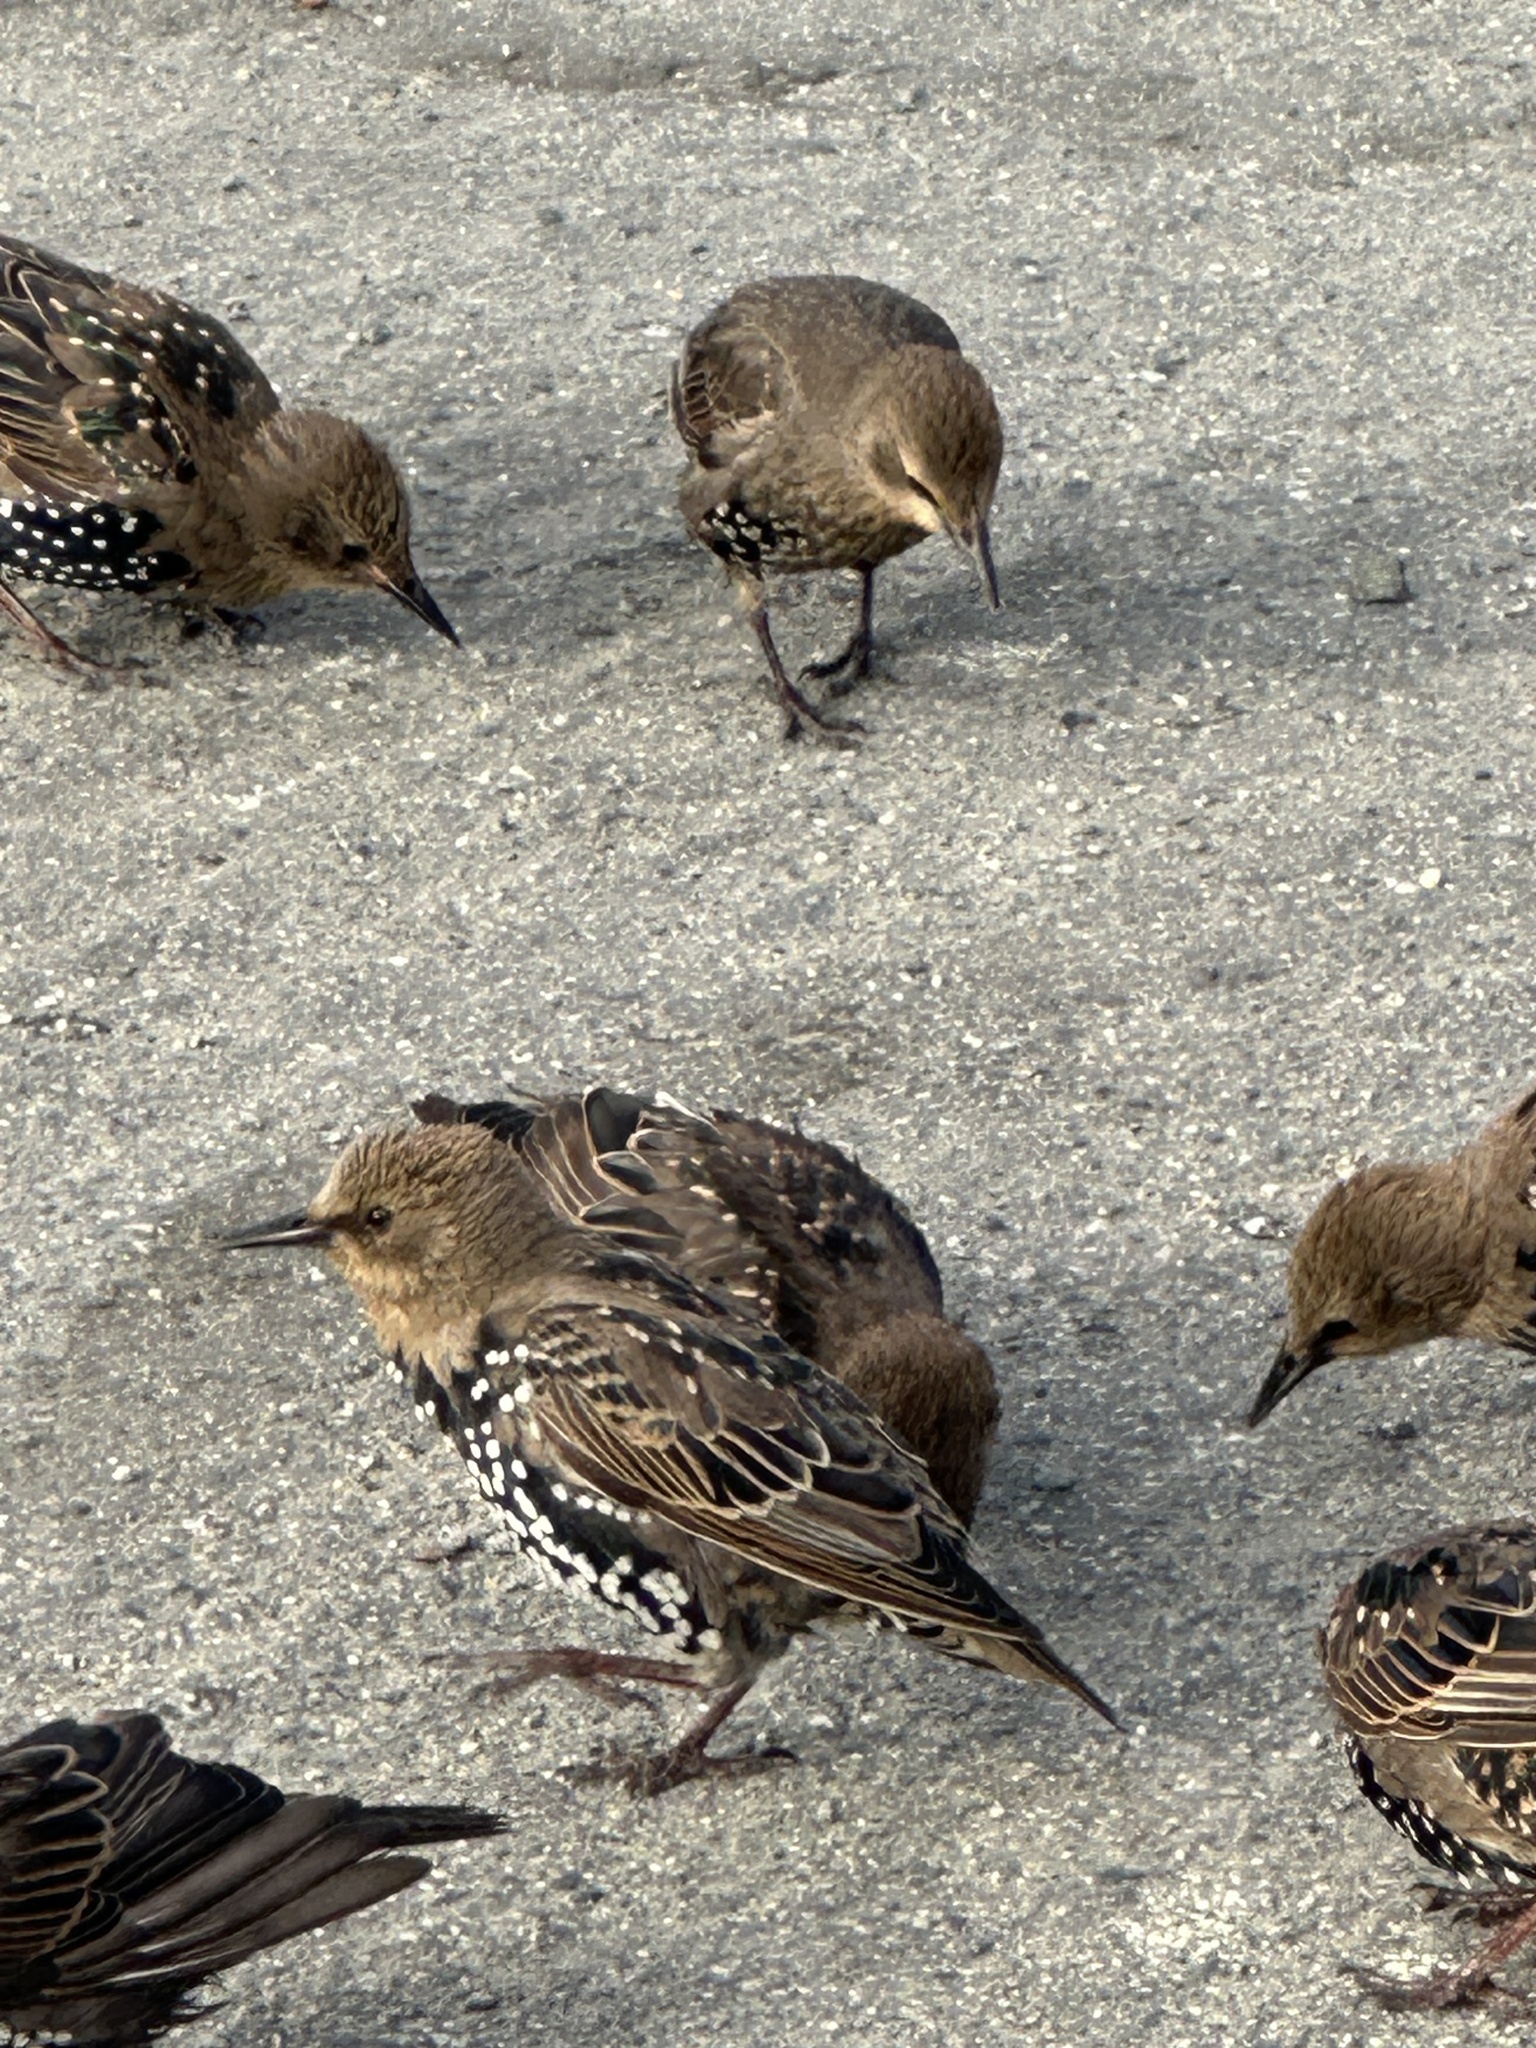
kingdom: Animalia
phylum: Chordata
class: Aves
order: Passeriformes
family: Sturnidae
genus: Sturnus
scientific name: Sturnus vulgaris
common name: Common starling
